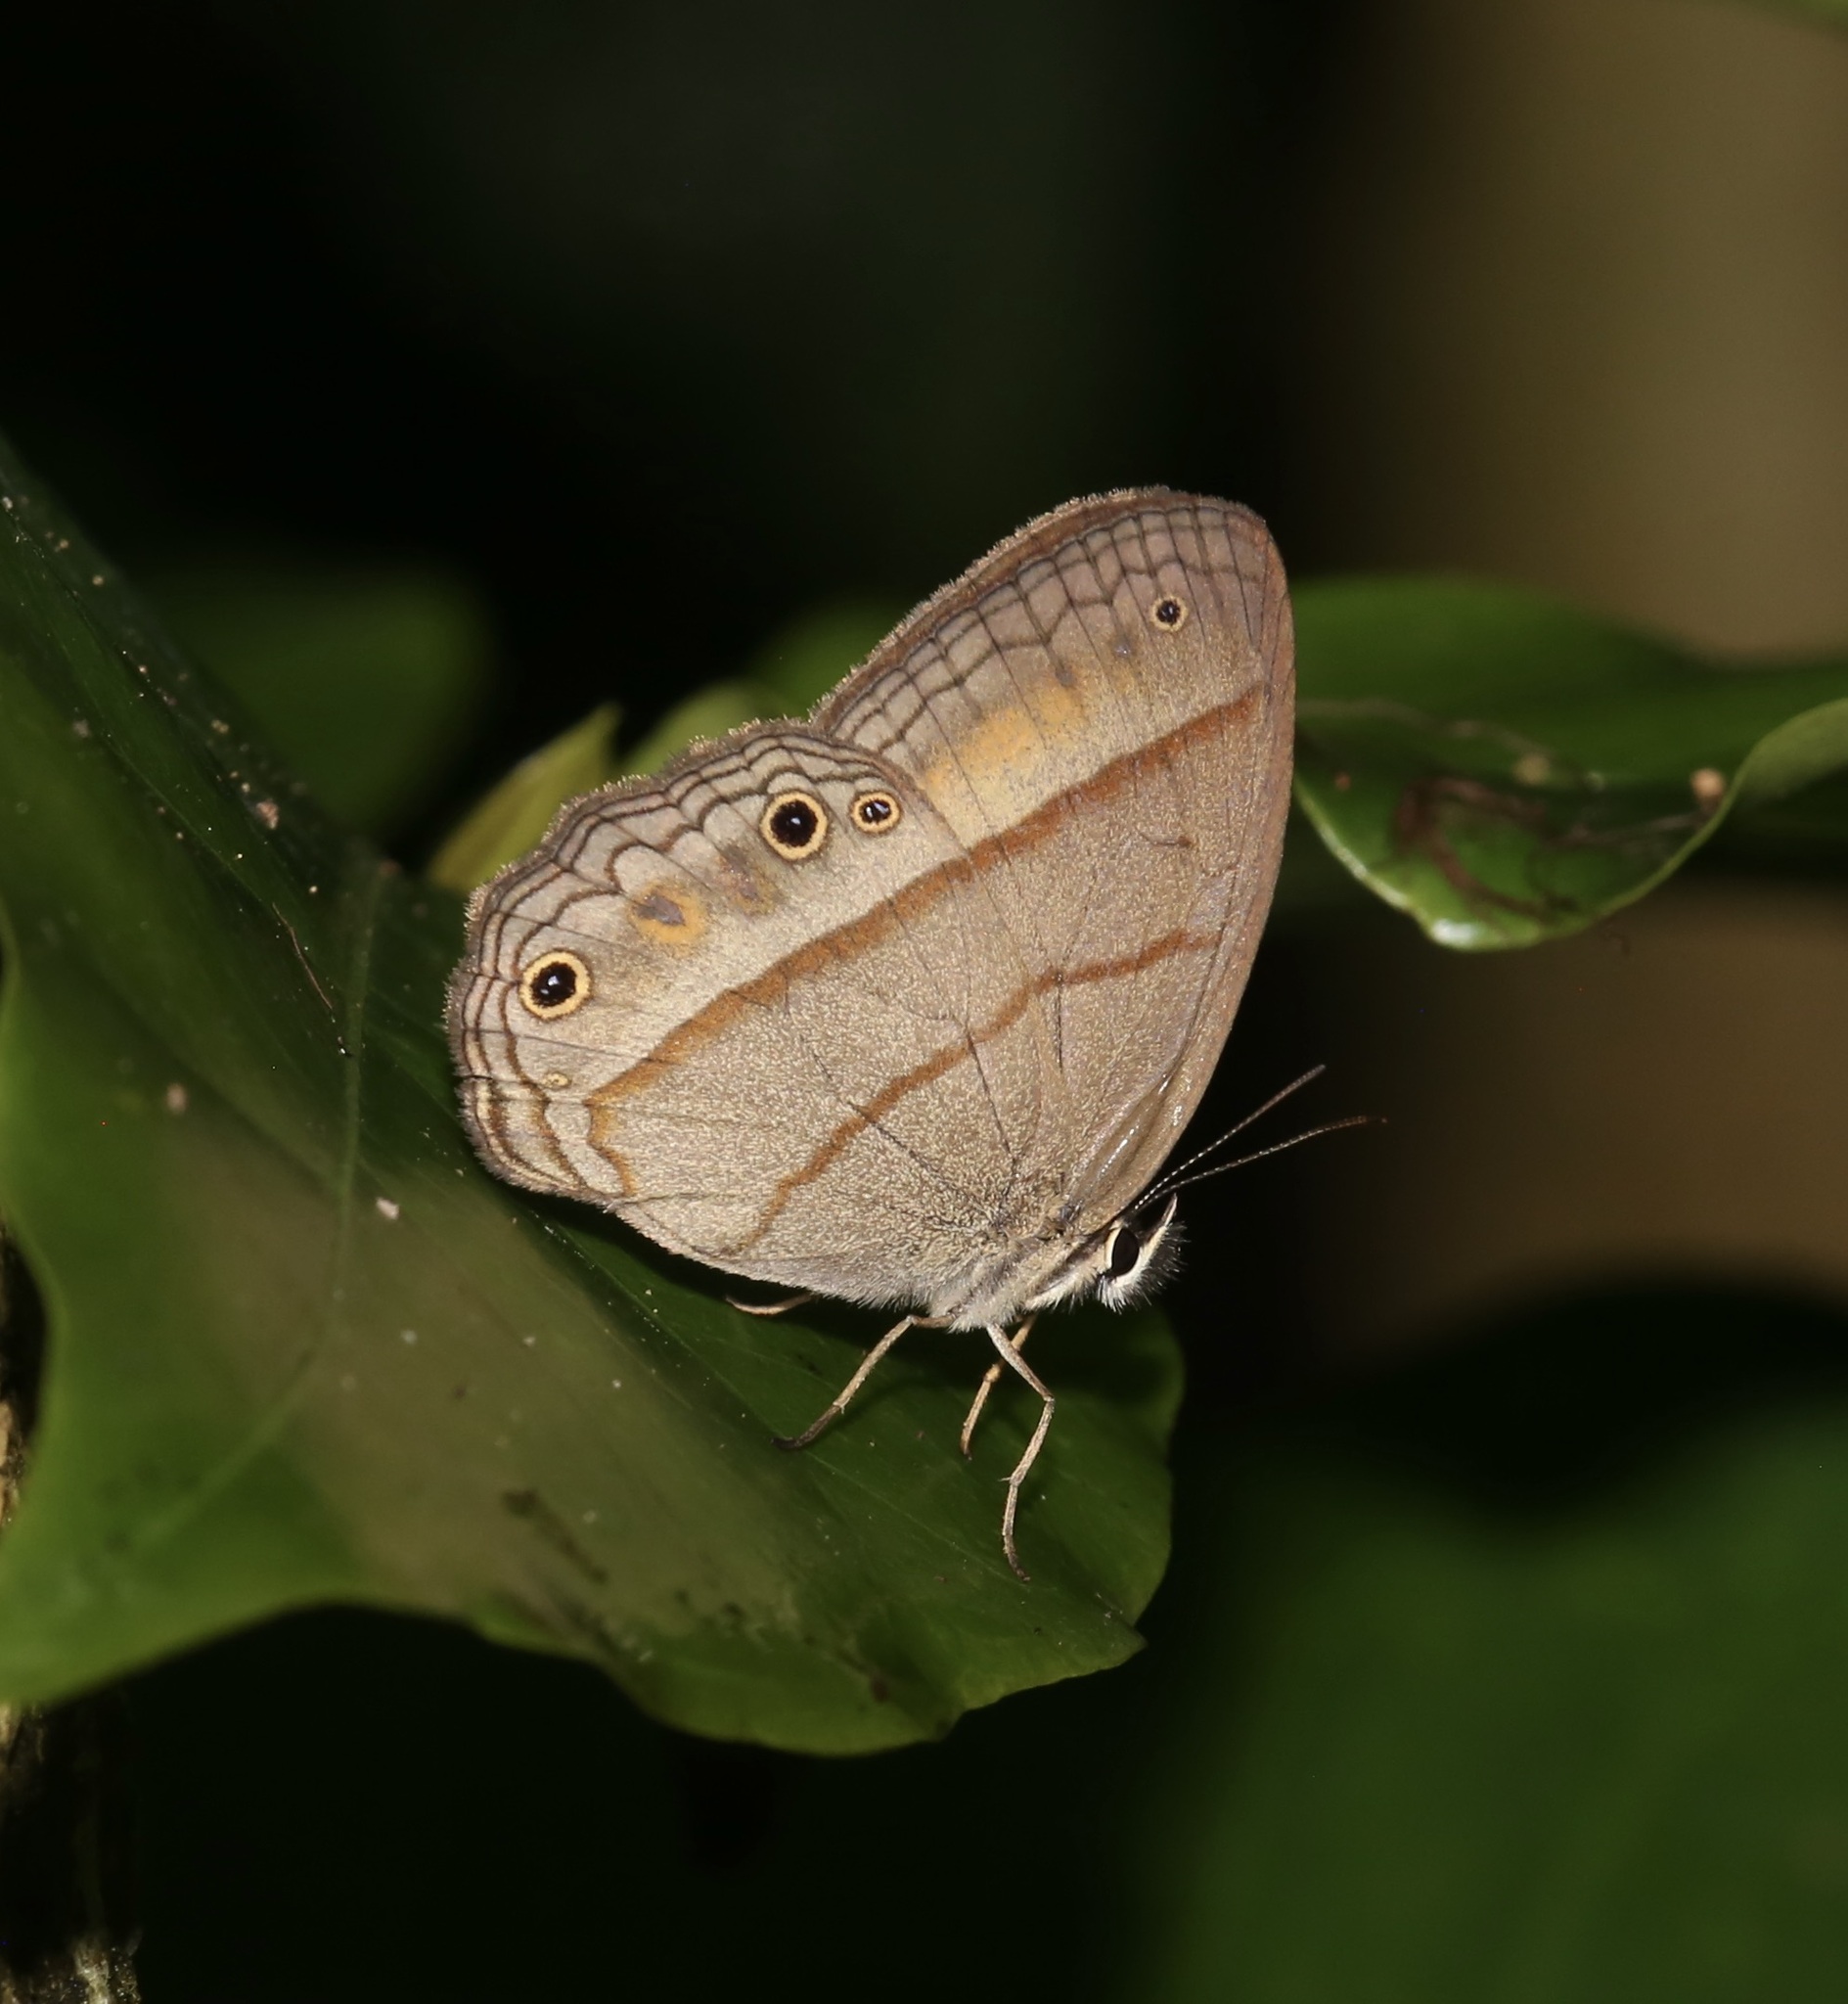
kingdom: Animalia
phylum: Arthropoda
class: Insecta
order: Lepidoptera
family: Nymphalidae
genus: Euptychia
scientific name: Euptychia Cissia pompilia
